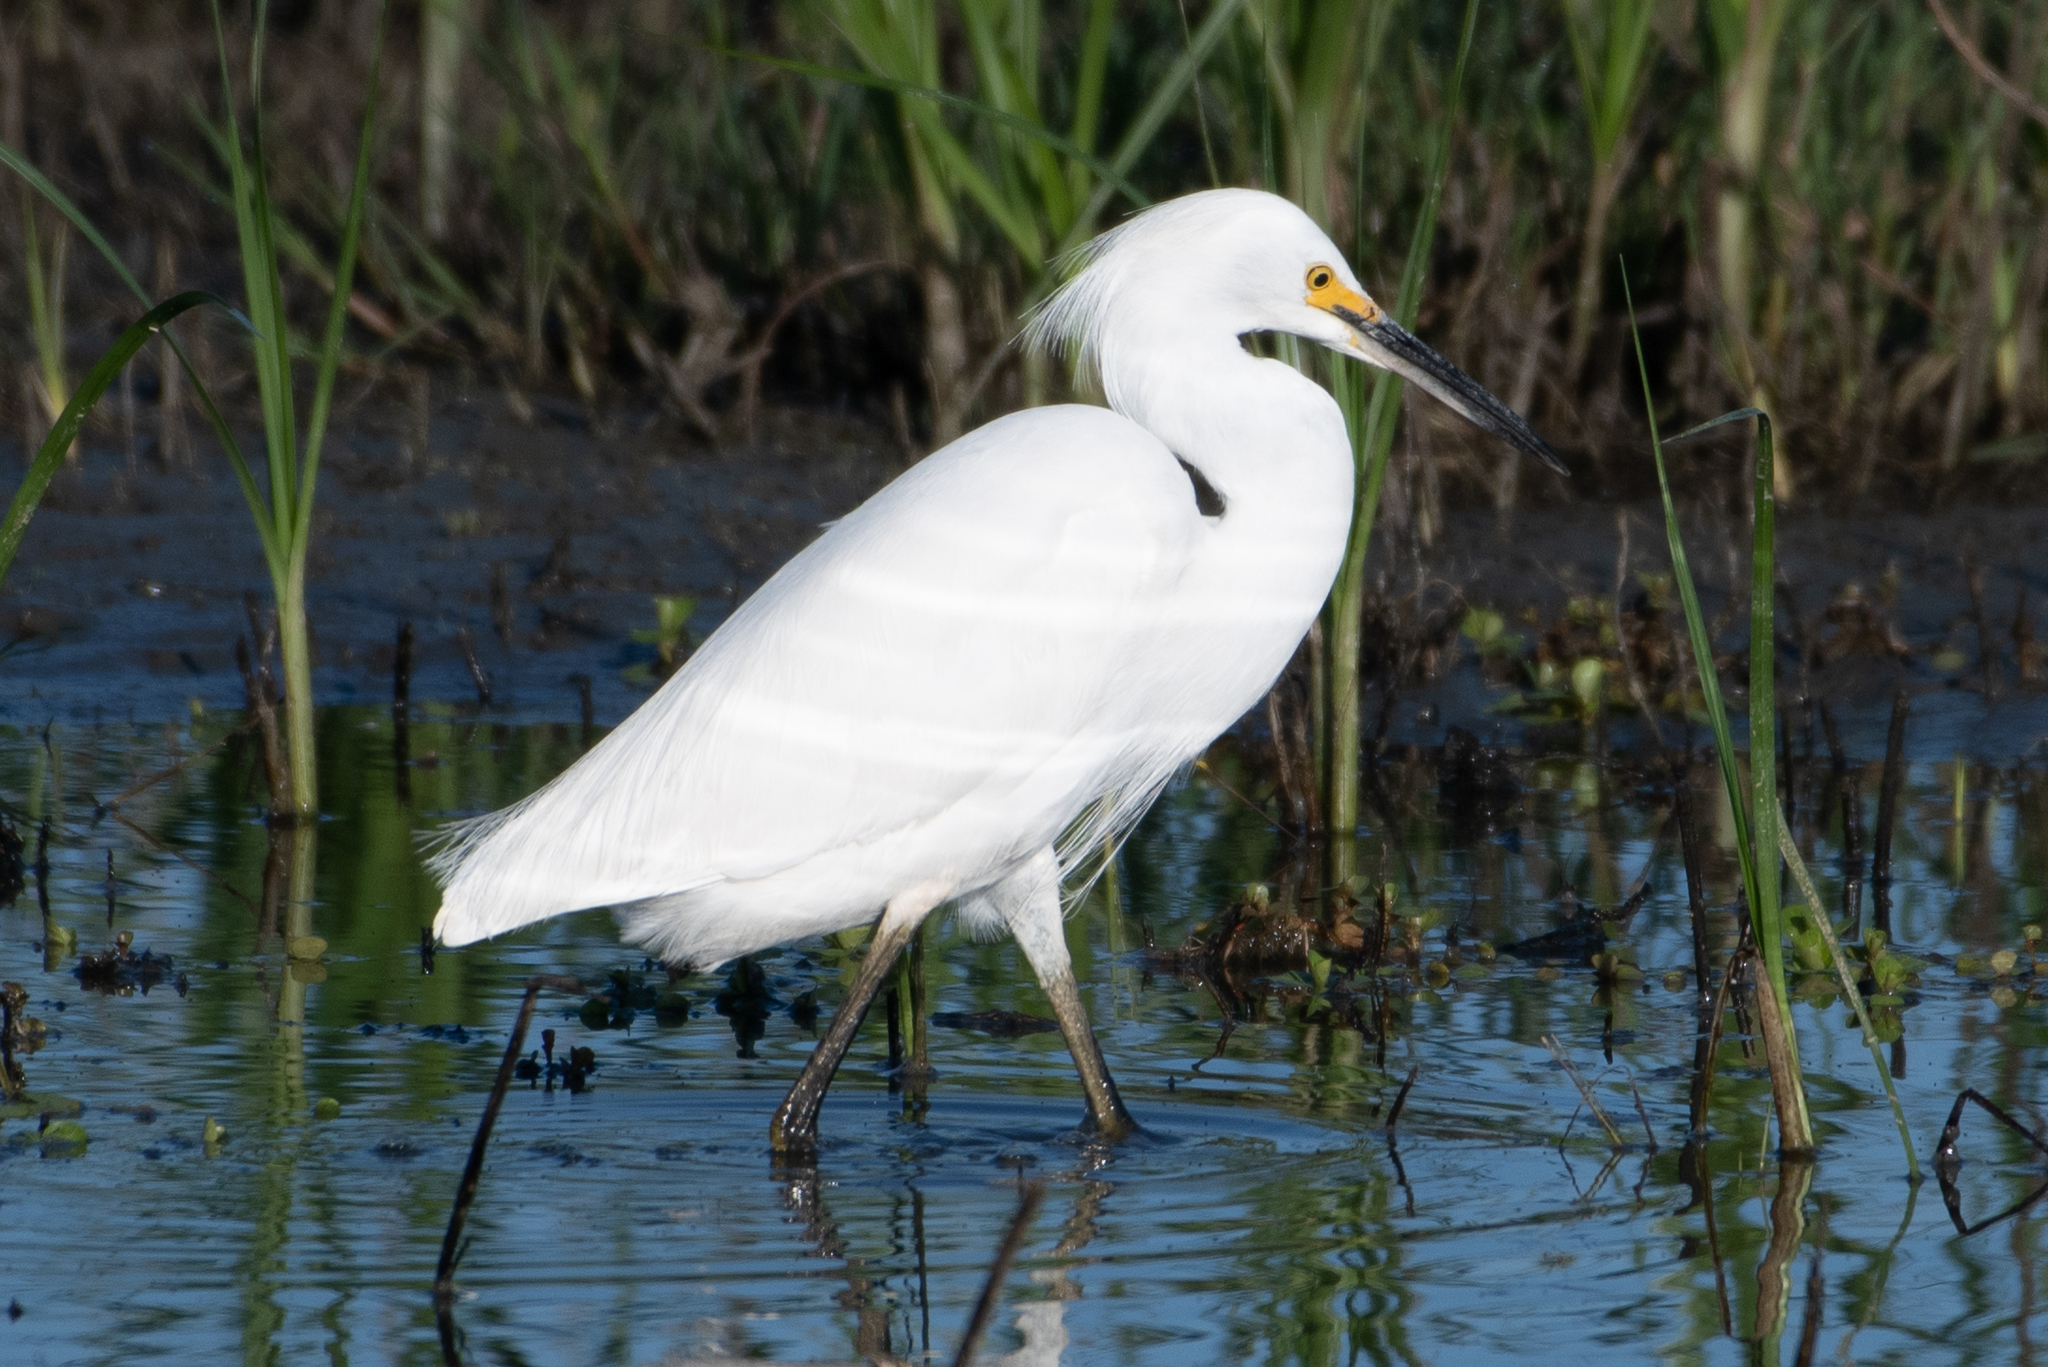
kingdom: Animalia
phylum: Chordata
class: Aves
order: Pelecaniformes
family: Ardeidae
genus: Egretta
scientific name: Egretta thula
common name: Snowy egret
